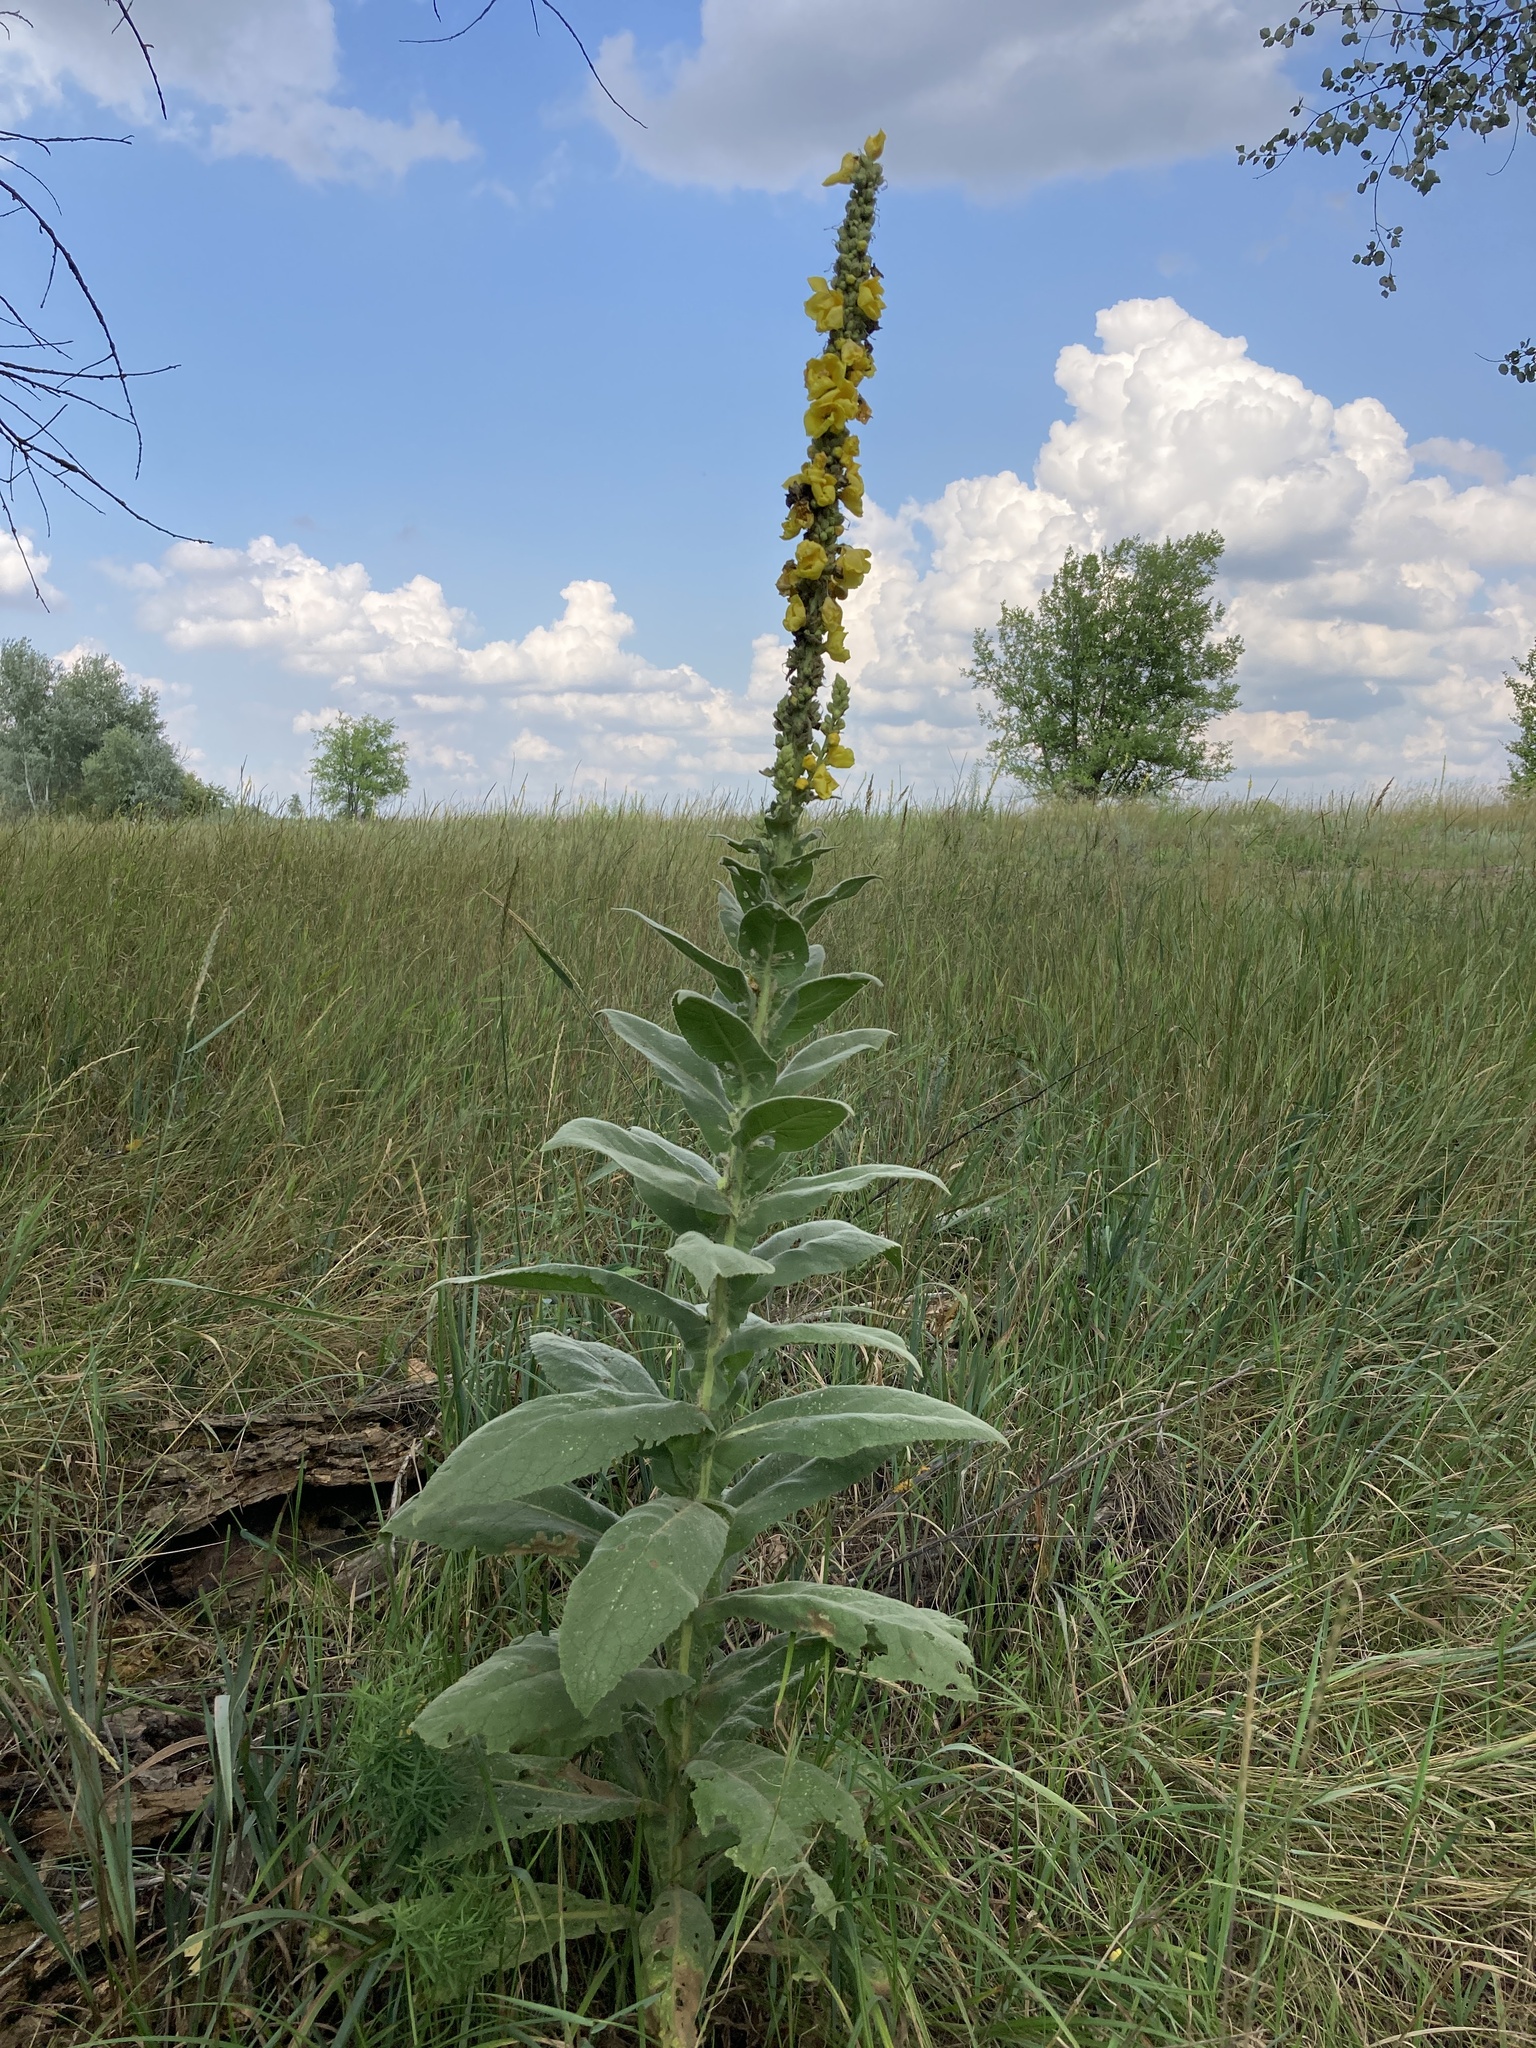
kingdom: Plantae
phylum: Tracheophyta
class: Magnoliopsida
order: Lamiales
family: Scrophulariaceae
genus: Verbascum
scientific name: Verbascum densiflorum
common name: Dense-flowered mullein
